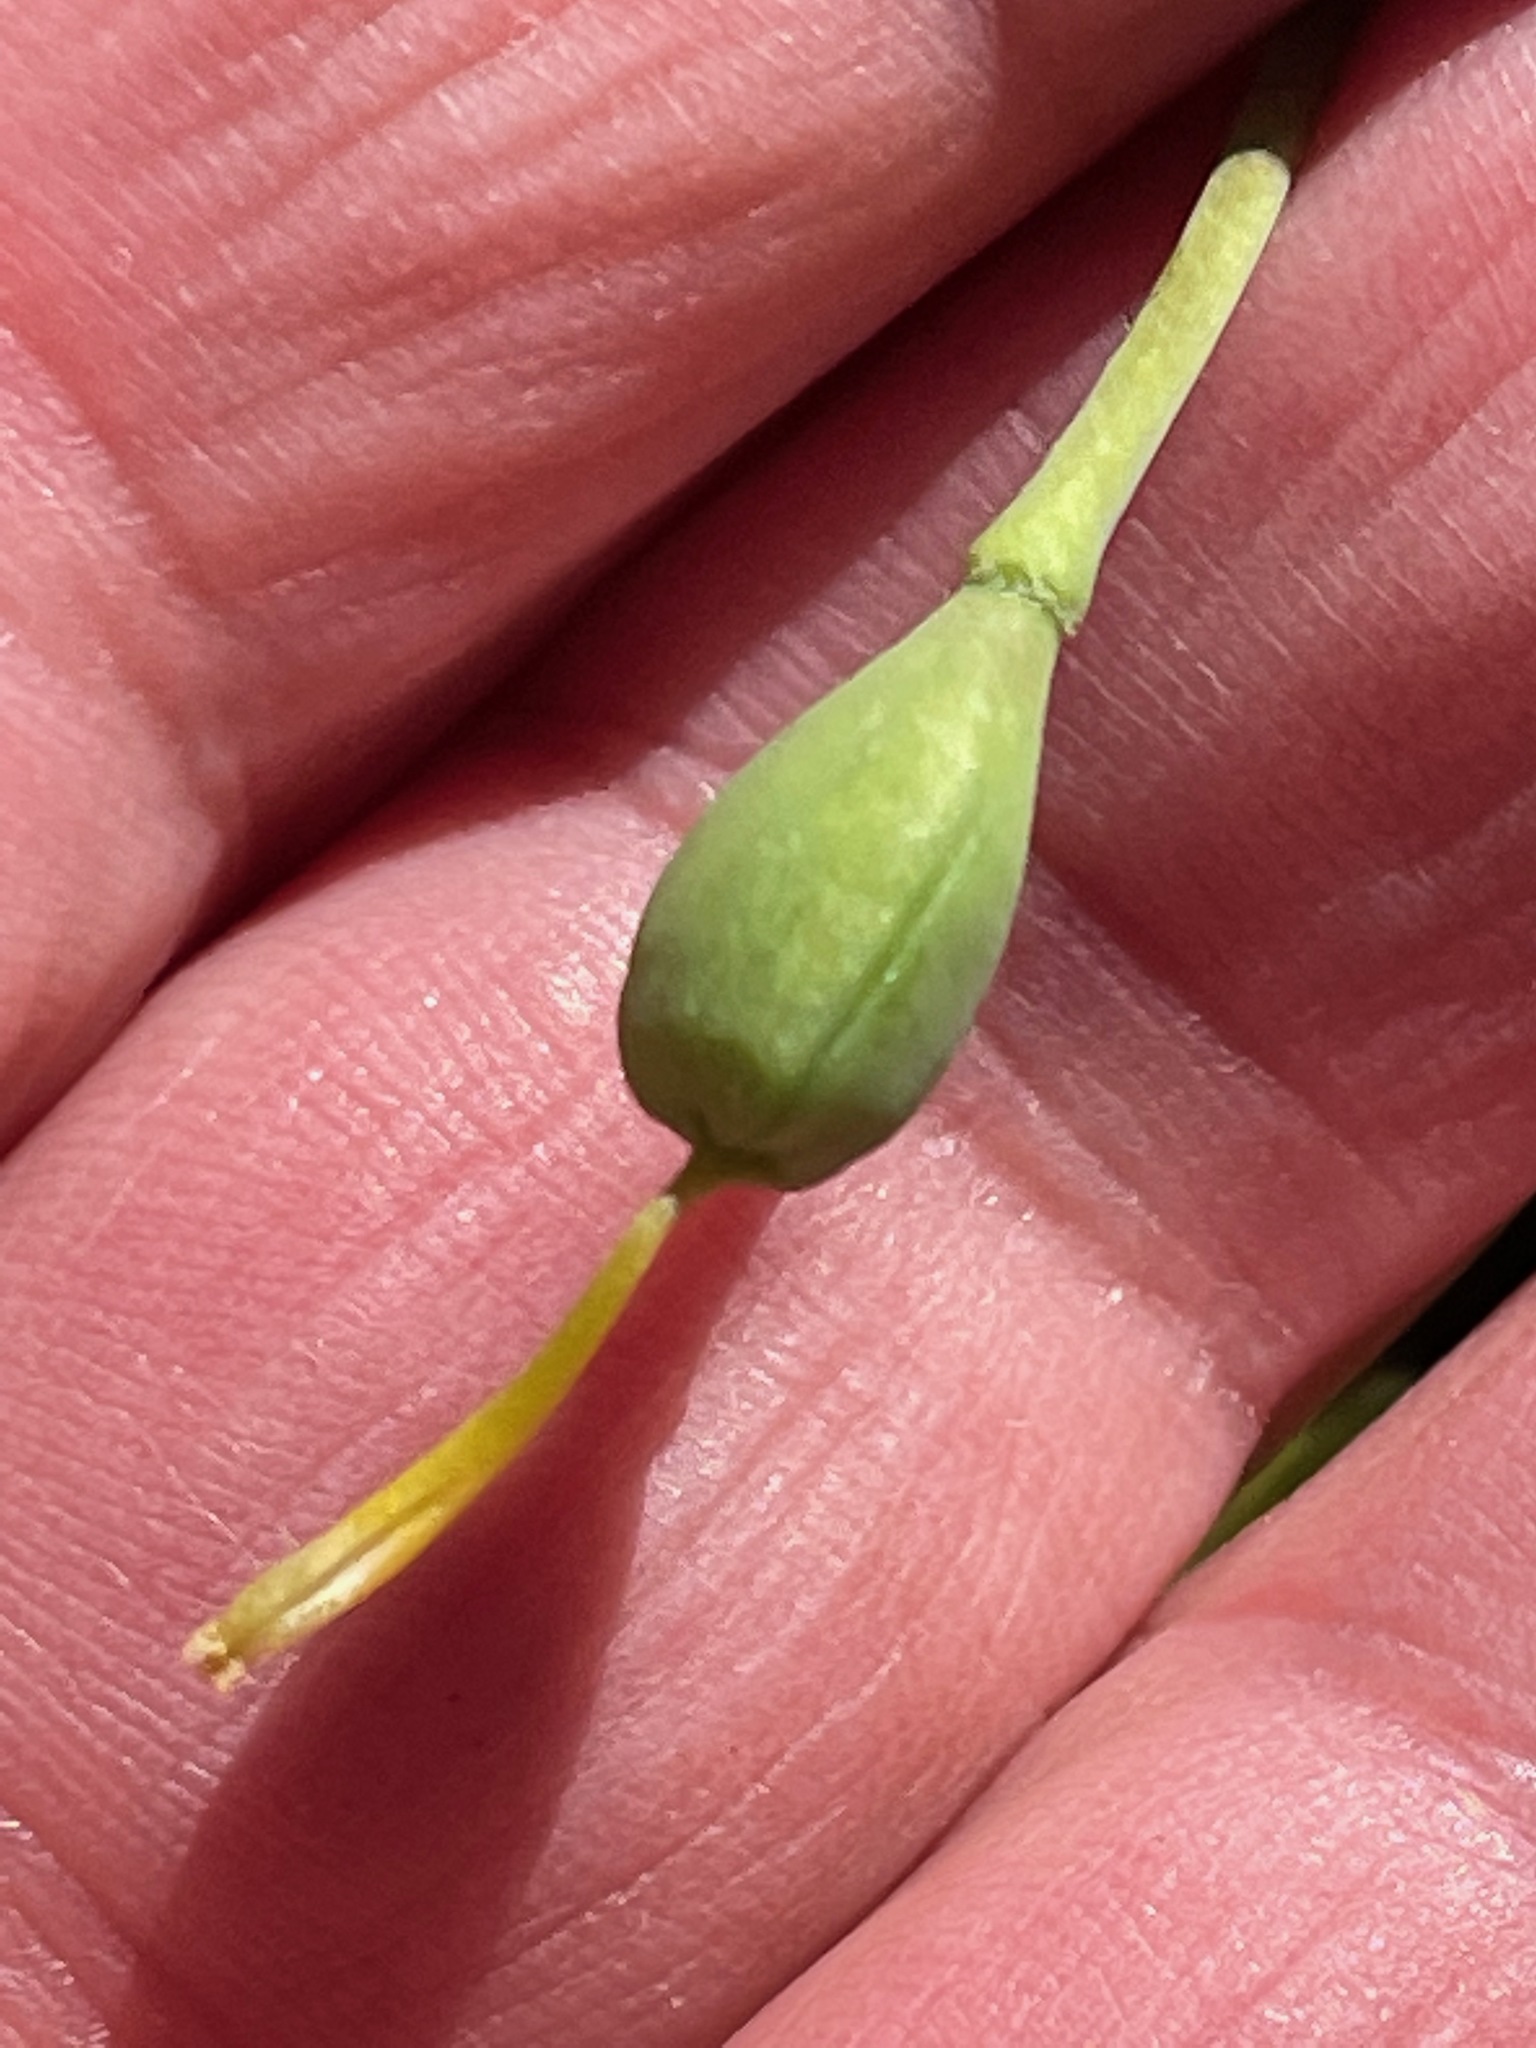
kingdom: Plantae
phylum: Tracheophyta
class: Liliopsida
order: Liliales
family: Liliaceae
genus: Erythronium
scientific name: Erythronium americanum
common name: Yellow adder's-tongue
